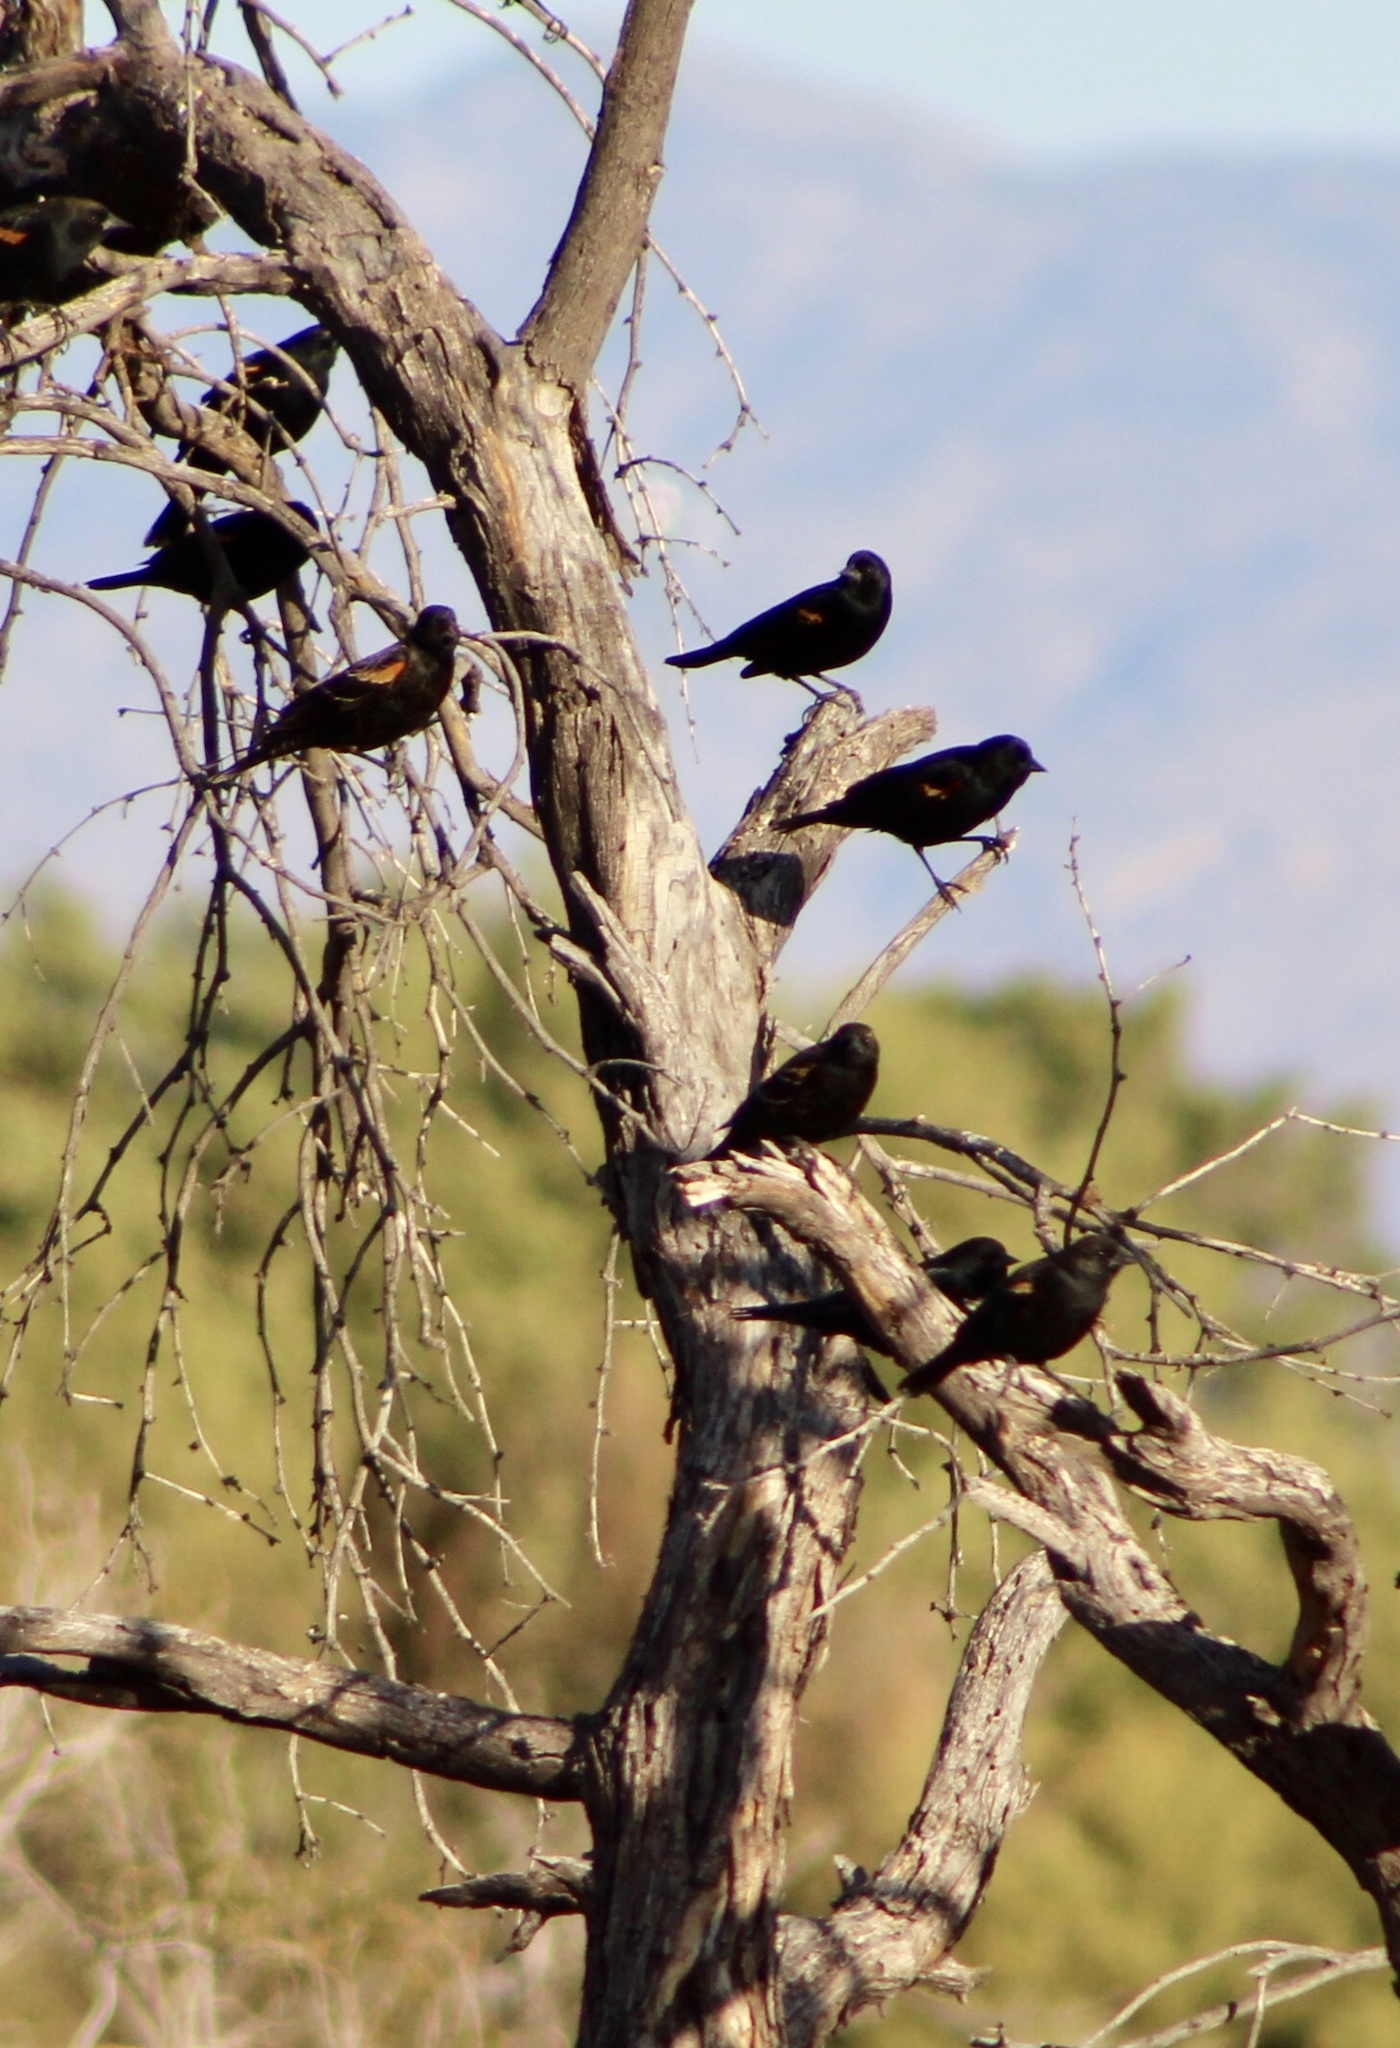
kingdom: Animalia
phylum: Chordata
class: Aves
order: Passeriformes
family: Icteridae
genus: Agelaius
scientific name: Agelaius phoeniceus
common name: Red-winged blackbird
